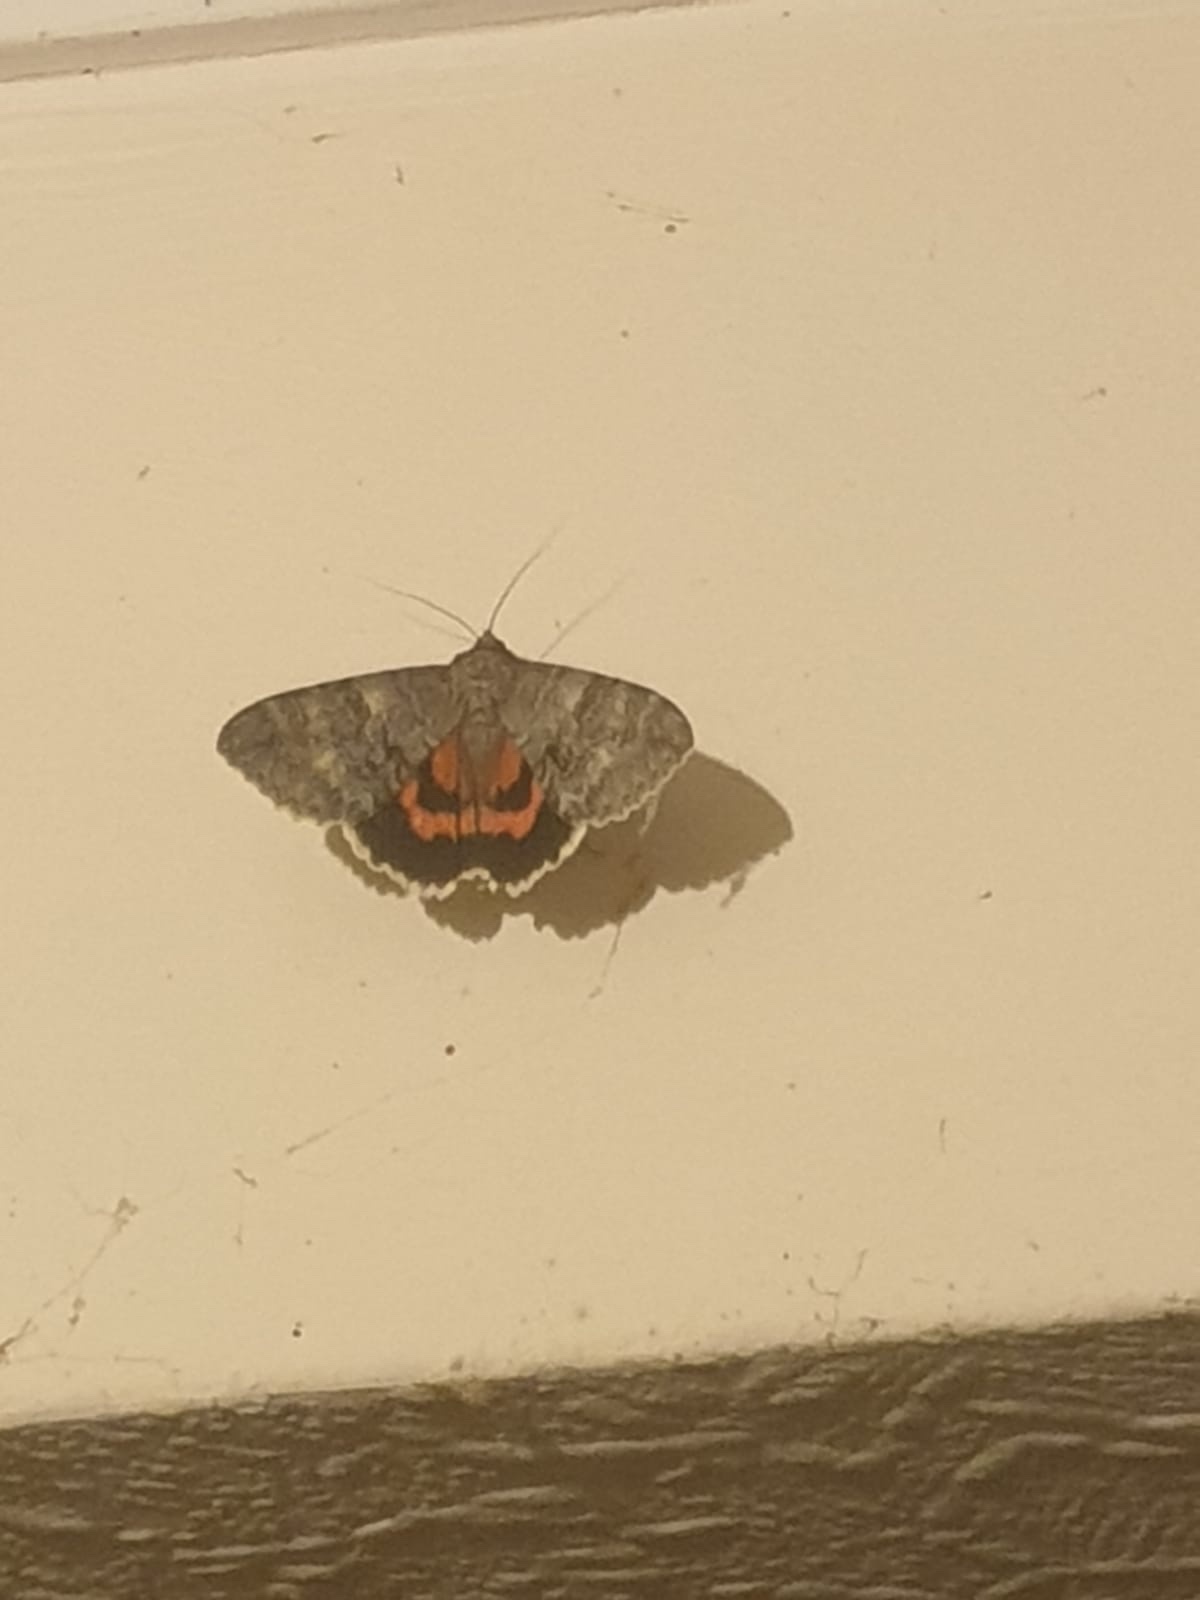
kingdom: Animalia
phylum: Arthropoda
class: Insecta
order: Lepidoptera
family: Erebidae
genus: Catocala
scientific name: Catocala nupta
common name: Red underwing
